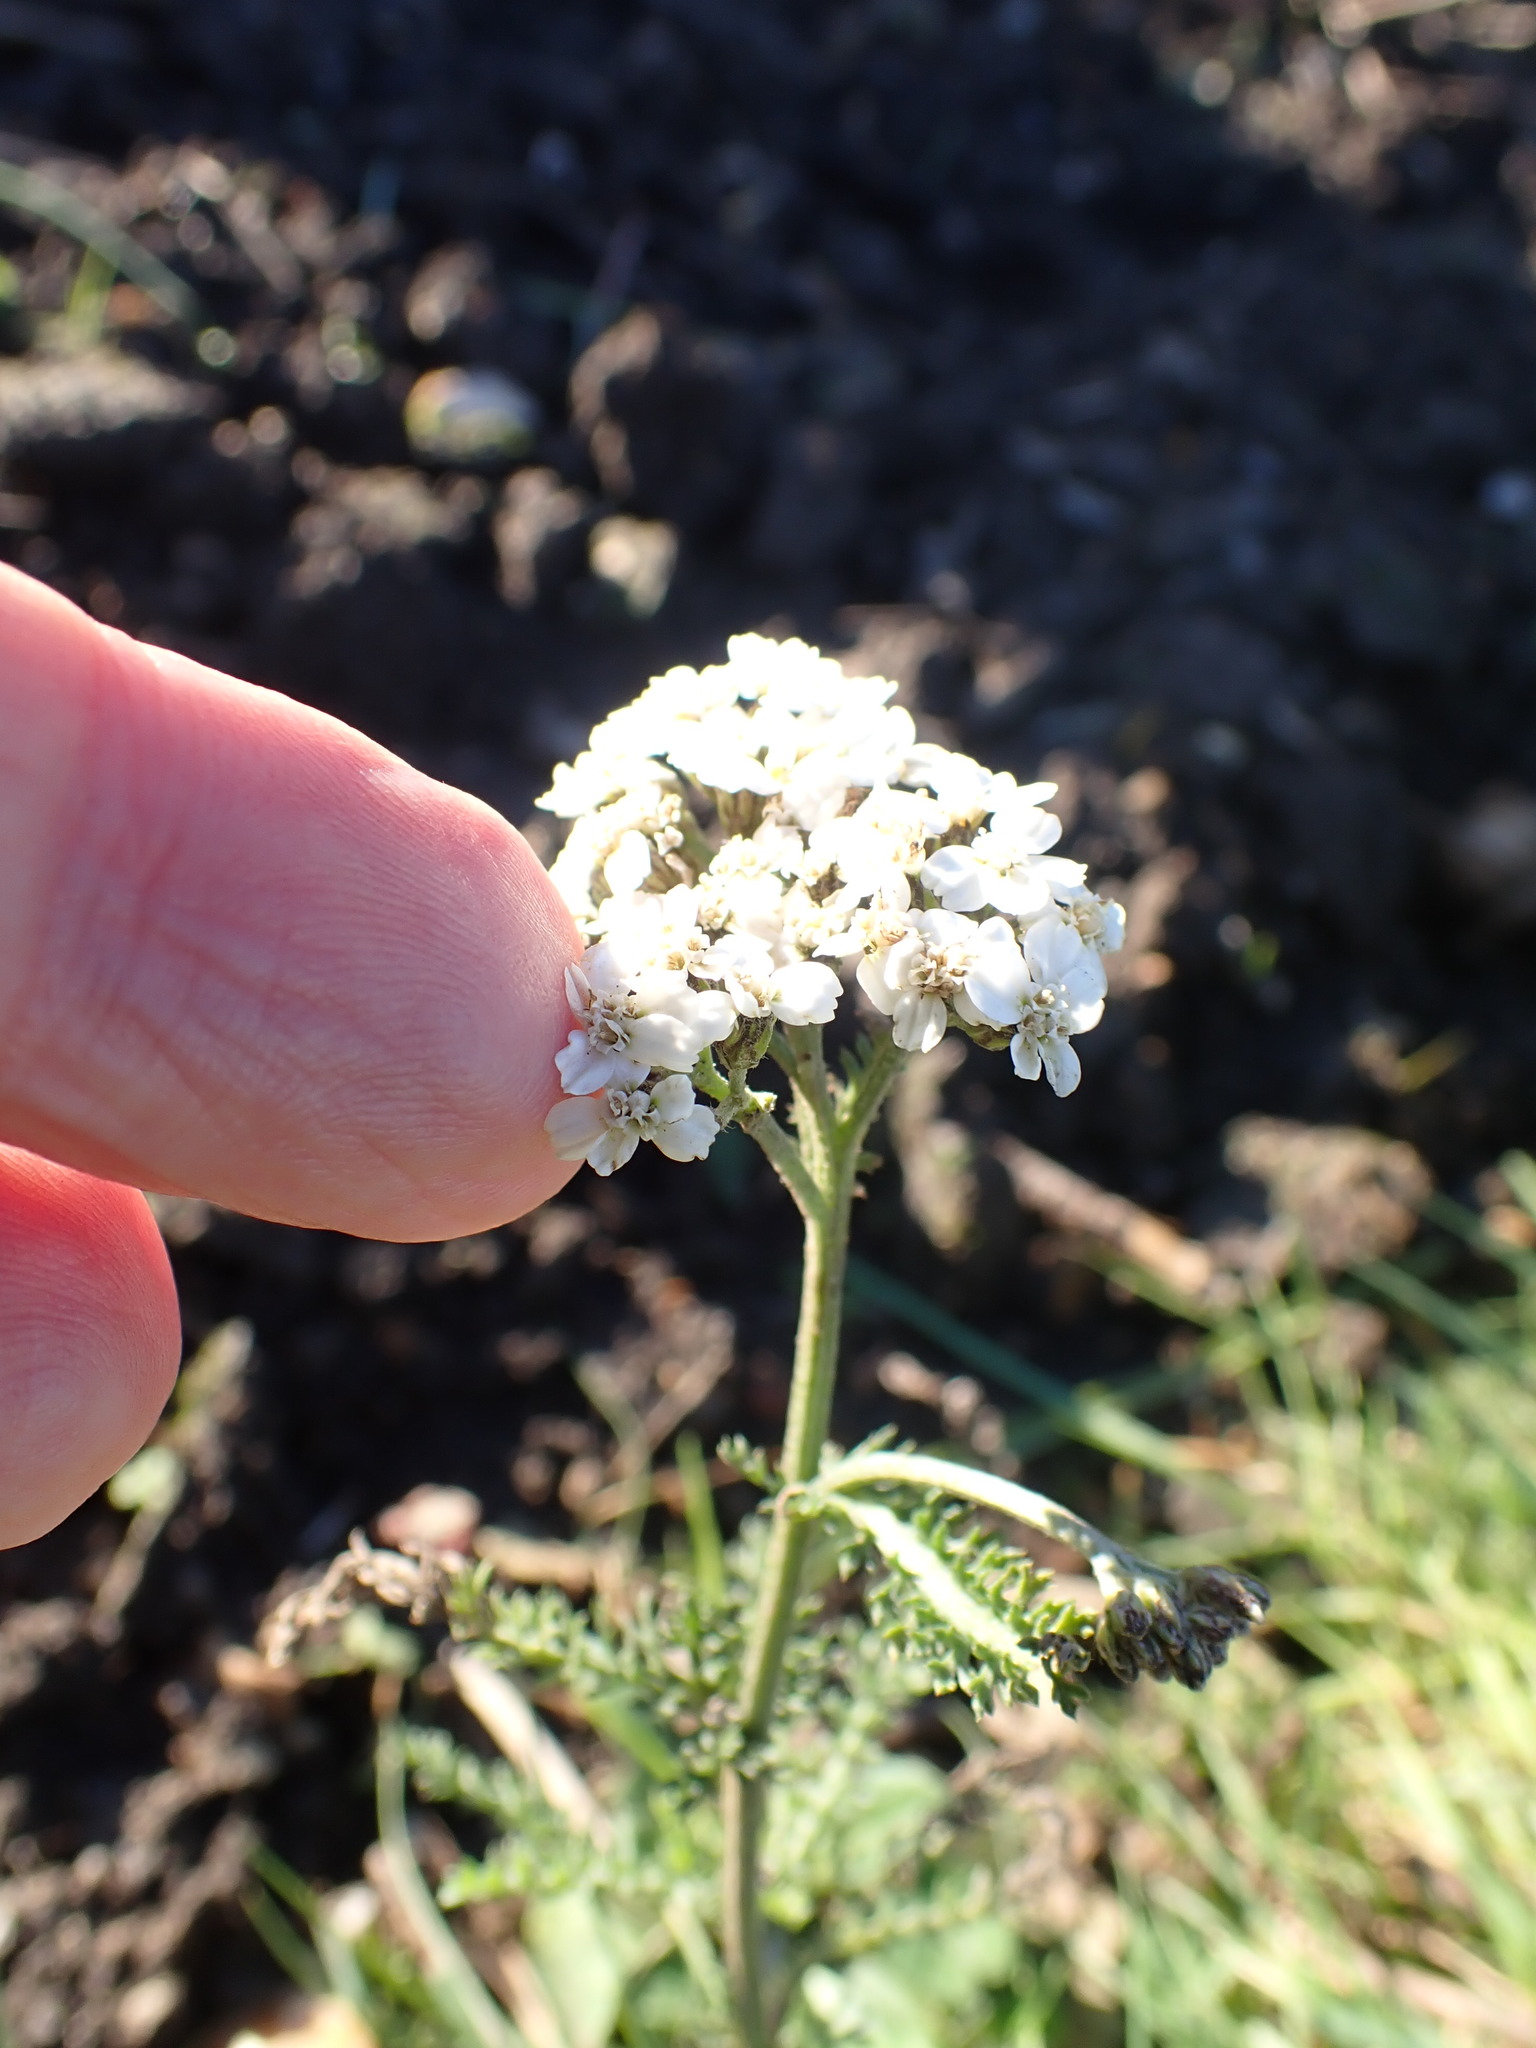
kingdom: Plantae
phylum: Tracheophyta
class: Magnoliopsida
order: Asterales
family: Asteraceae
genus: Achillea
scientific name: Achillea millefolium
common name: Yarrow
